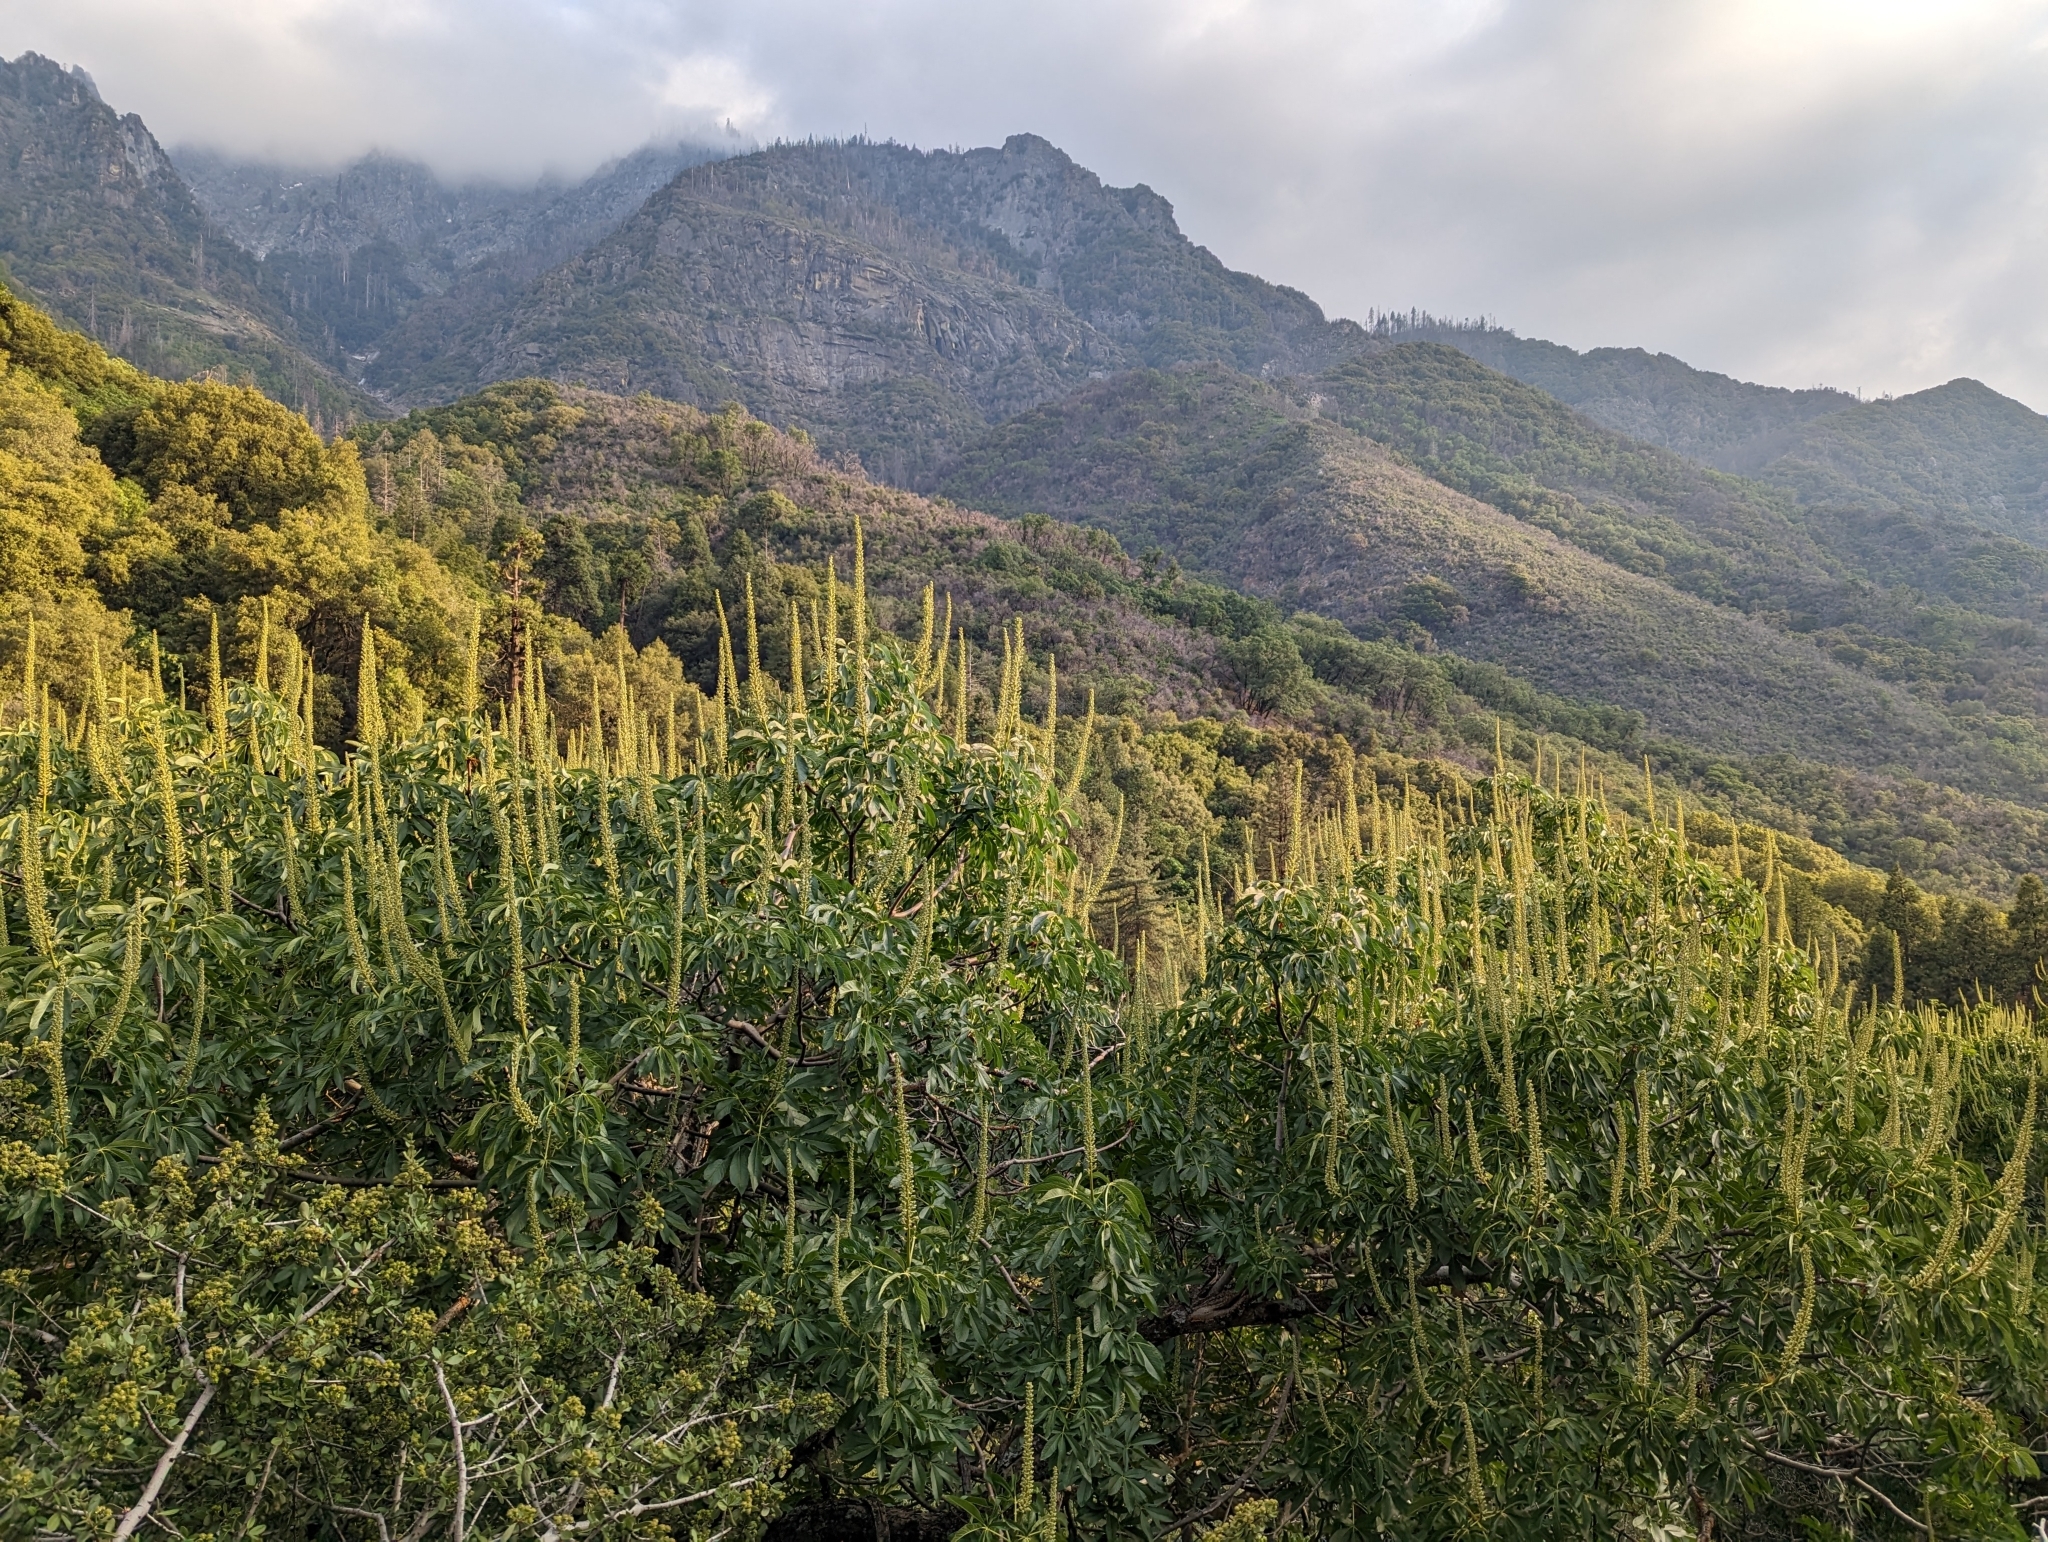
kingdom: Plantae
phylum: Tracheophyta
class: Magnoliopsida
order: Sapindales
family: Sapindaceae
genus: Aesculus
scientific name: Aesculus californica
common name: California buckeye
